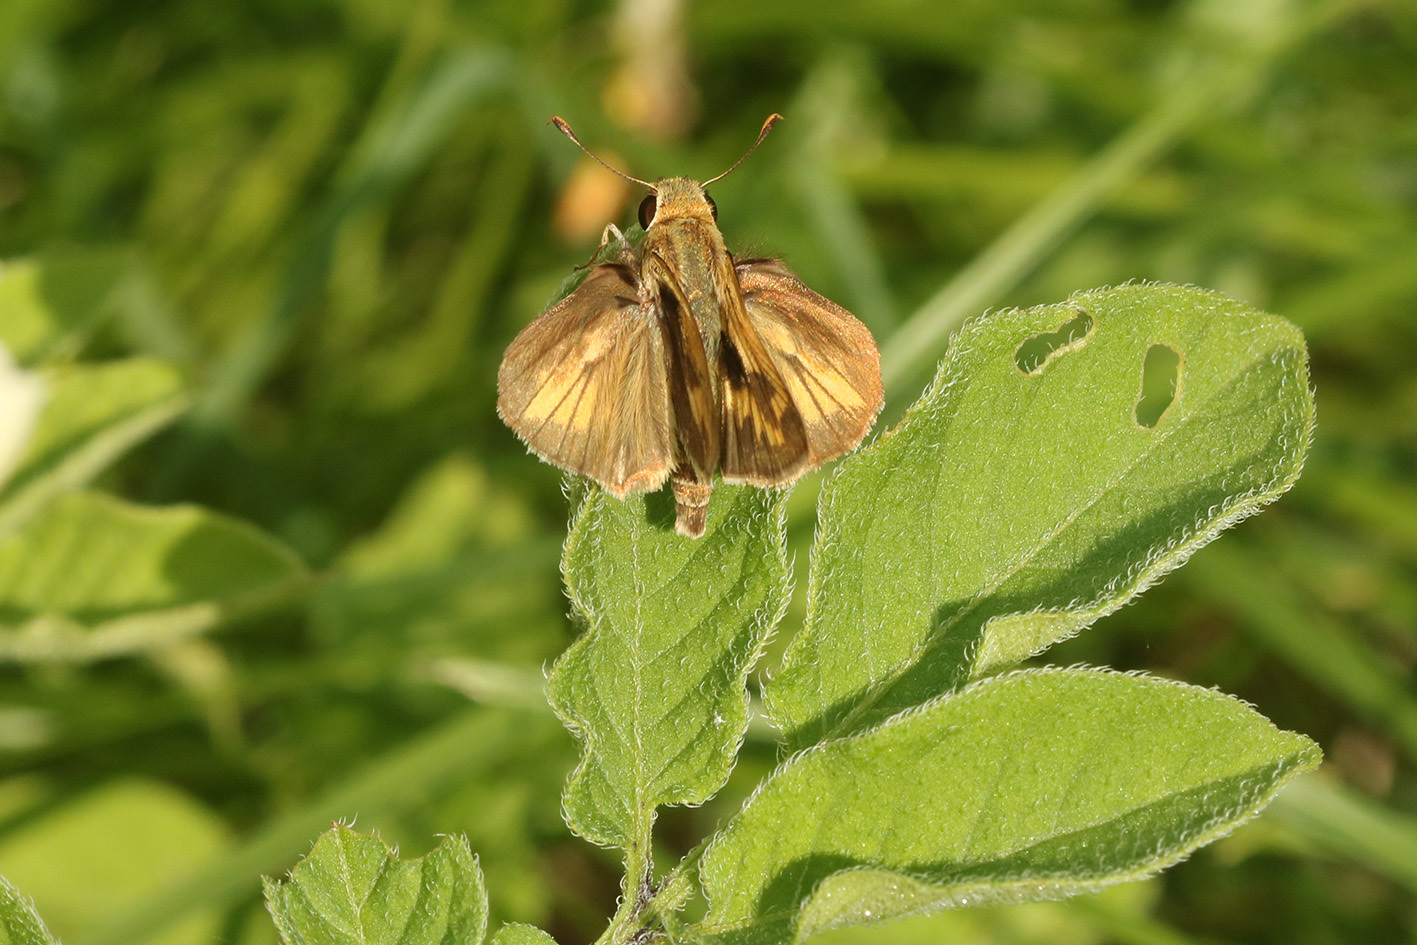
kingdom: Animalia
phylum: Arthropoda
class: Insecta
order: Lepidoptera
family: Hesperiidae
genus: Polites
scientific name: Polites vibex
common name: Whirlabout
